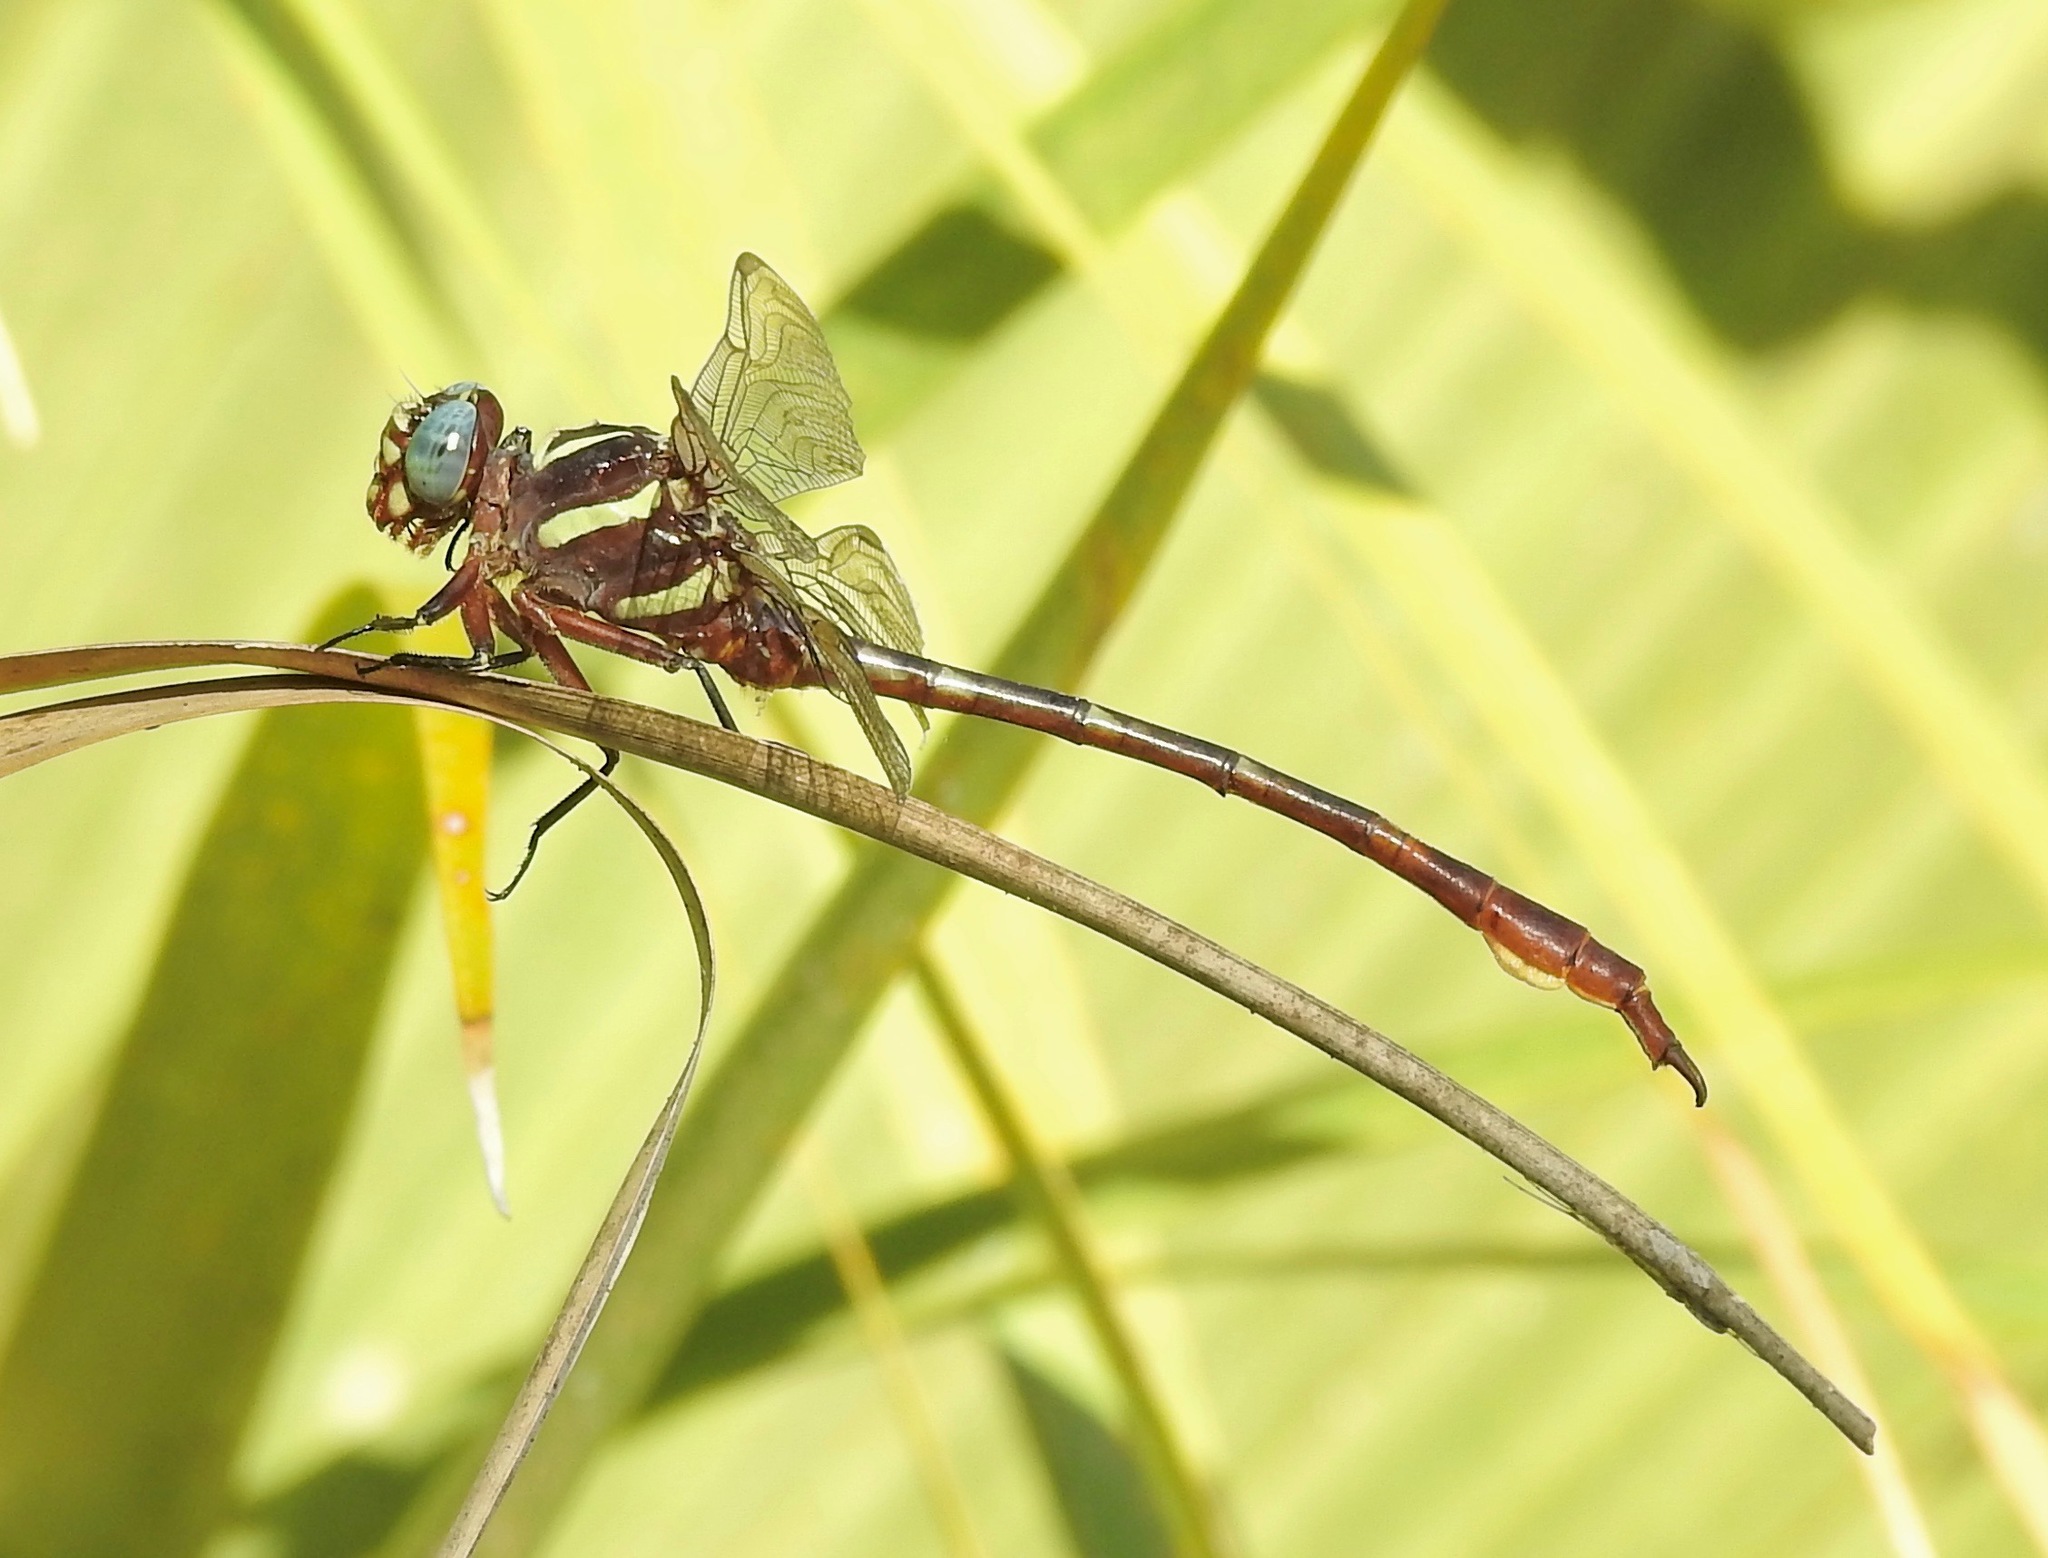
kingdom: Animalia
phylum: Arthropoda
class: Insecta
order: Odonata
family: Gomphidae
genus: Aphylla
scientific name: Aphylla williamsoni
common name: Two-striped forceptail
